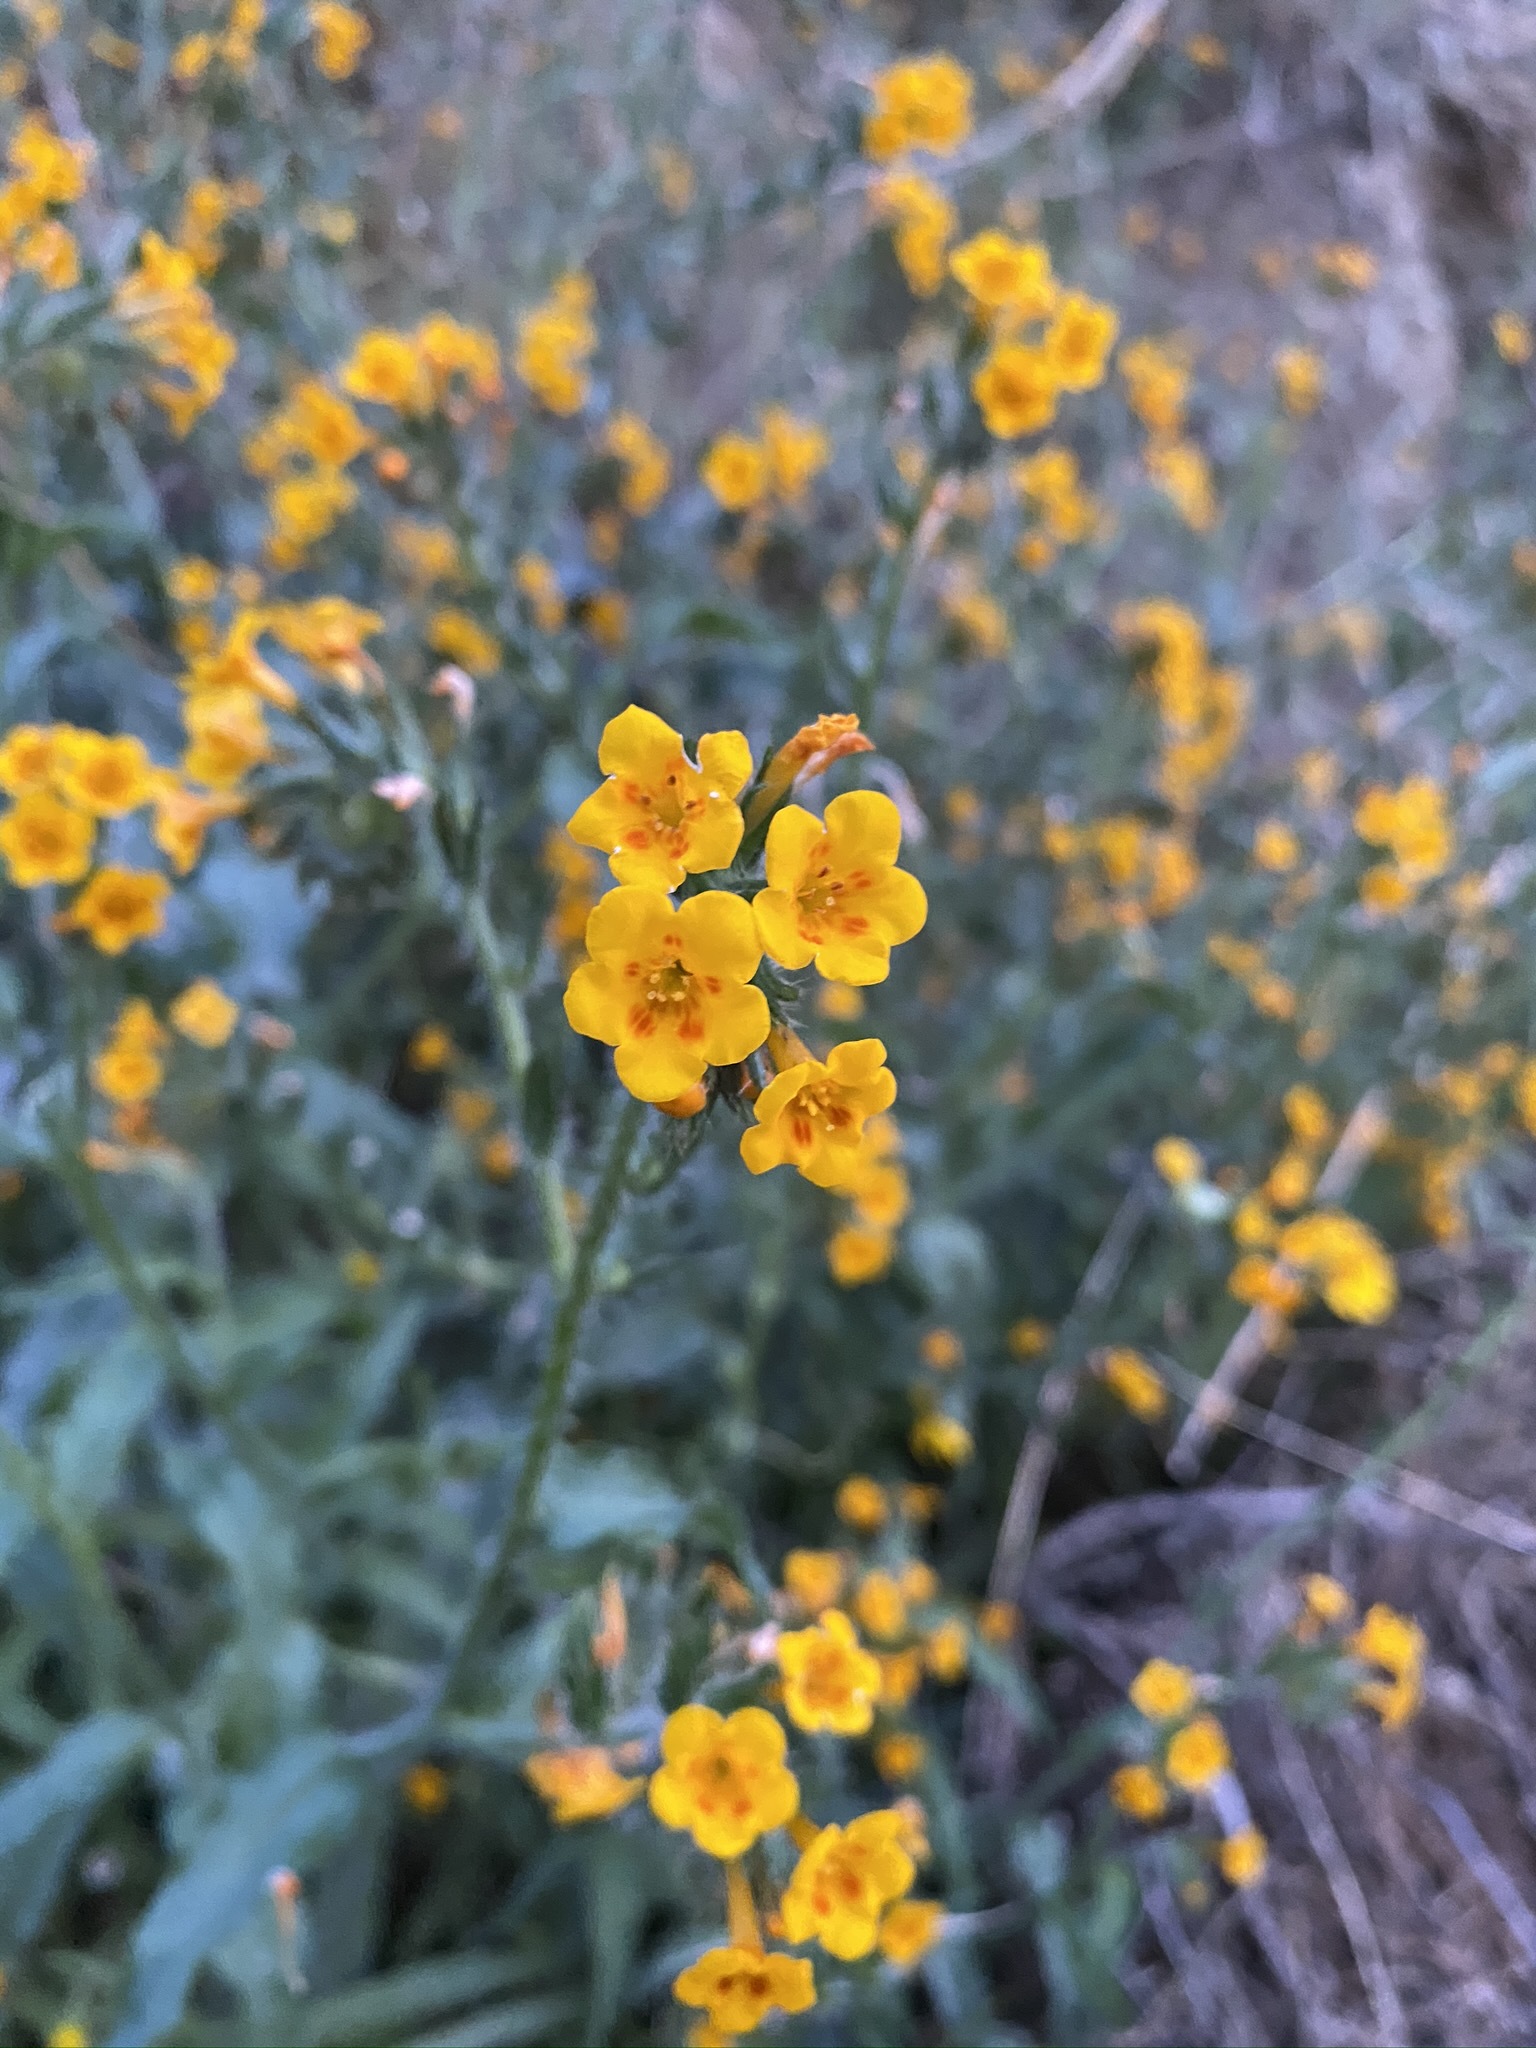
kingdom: Plantae
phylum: Tracheophyta
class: Magnoliopsida
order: Boraginales
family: Boraginaceae
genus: Amsinckia
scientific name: Amsinckia eastwoodiae
